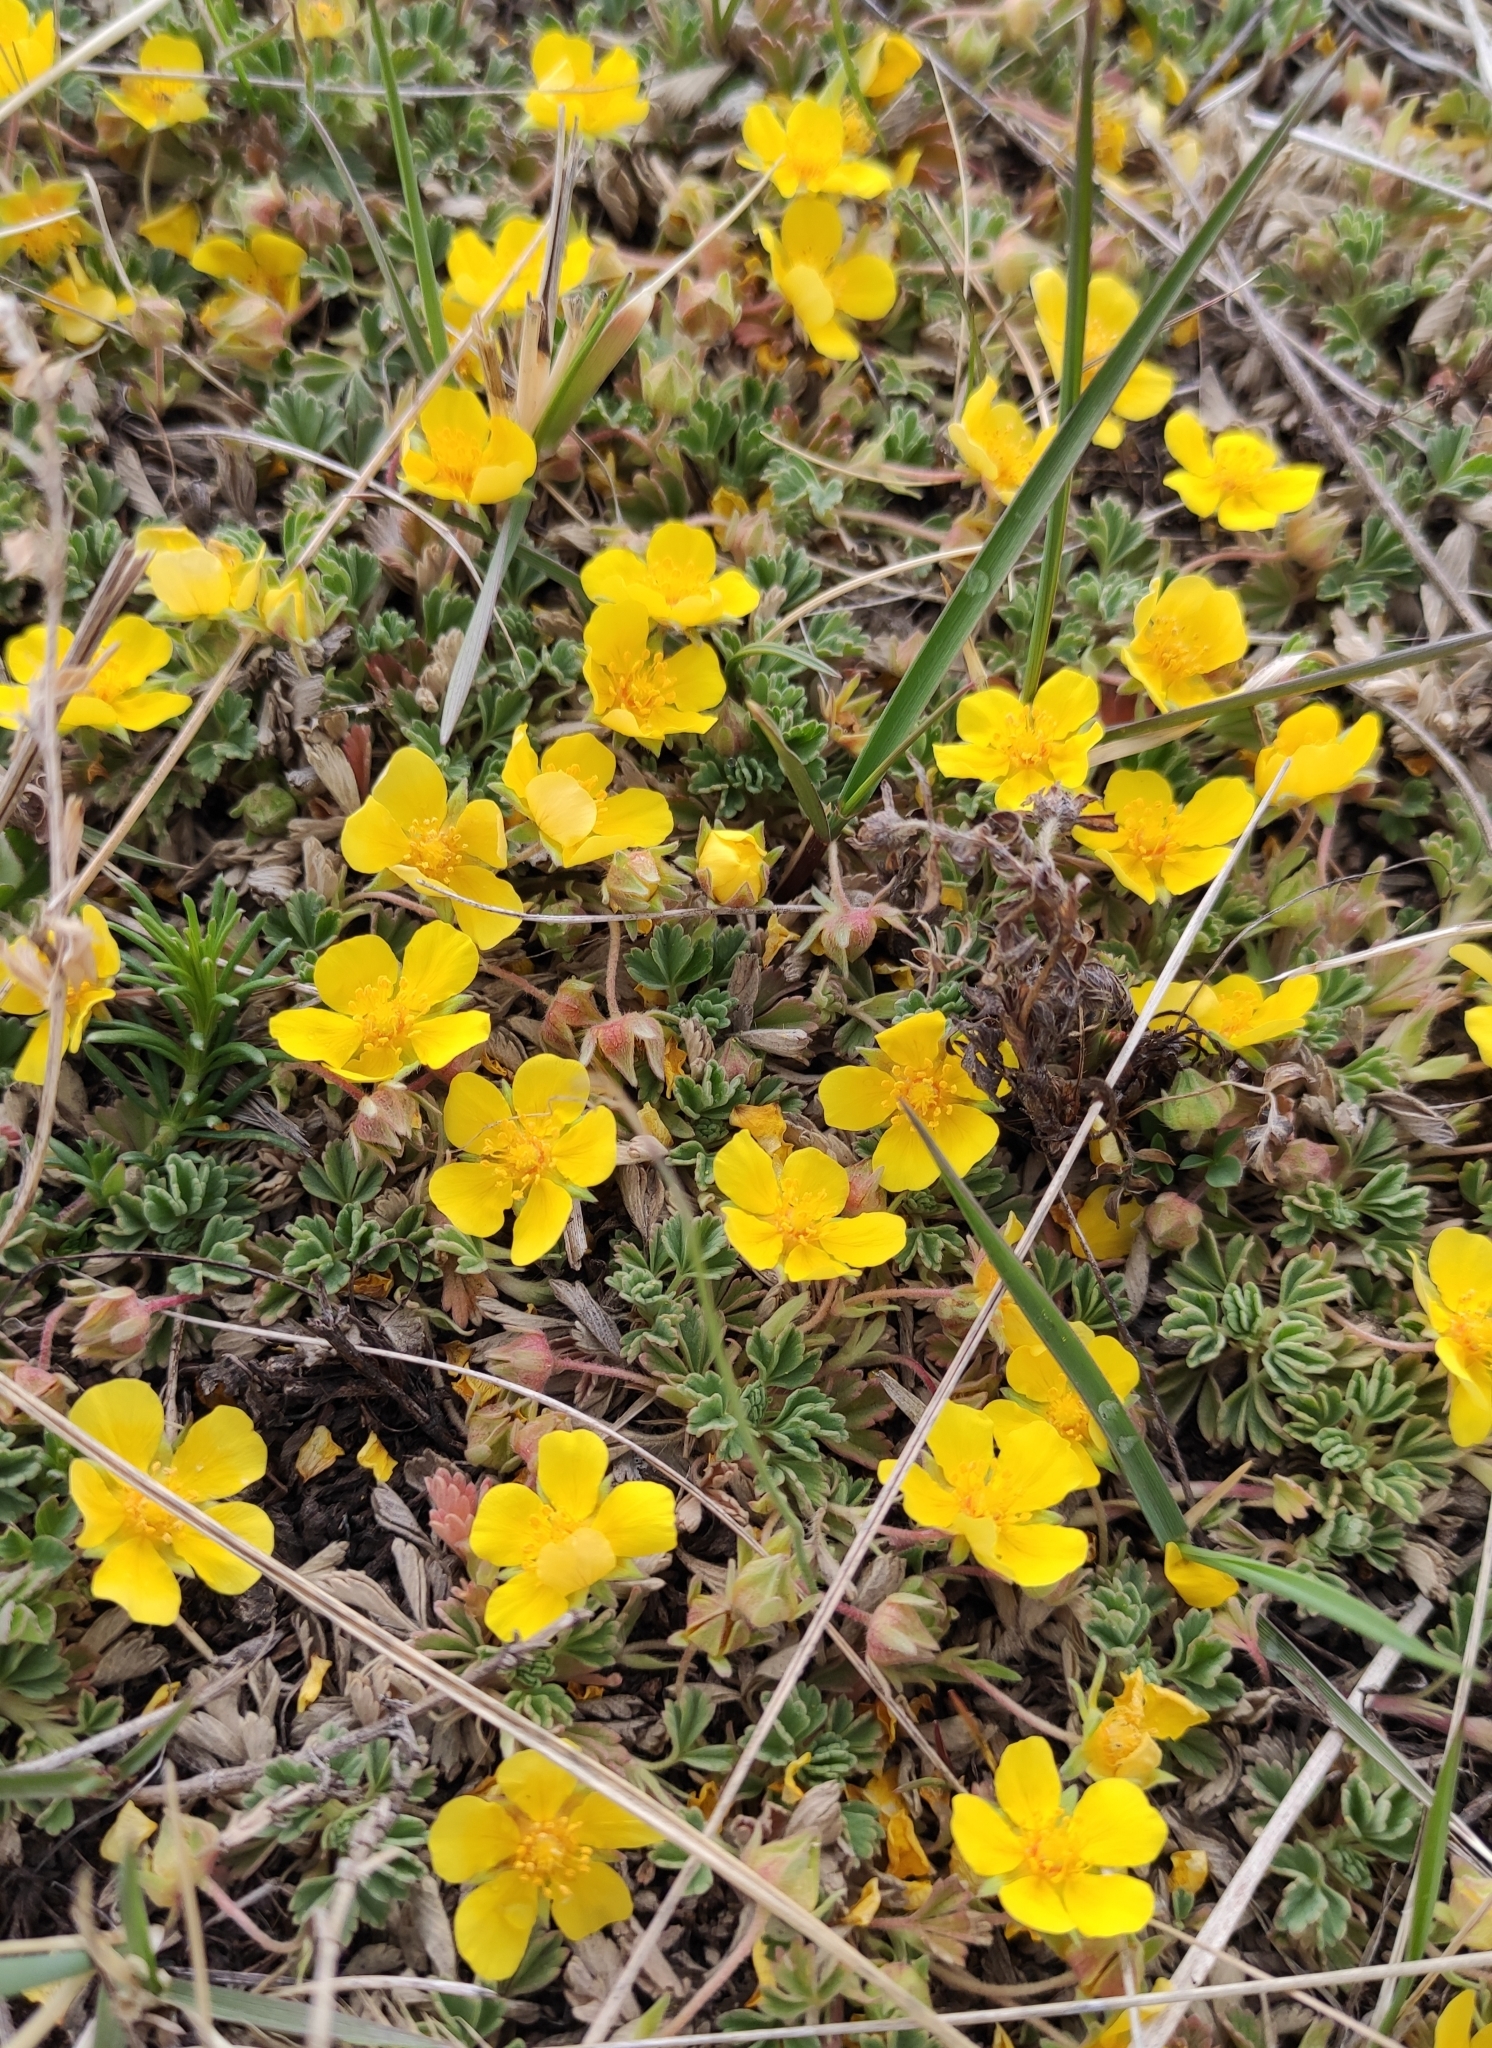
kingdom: Plantae
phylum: Tracheophyta
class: Magnoliopsida
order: Rosales
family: Rosaceae
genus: Potentilla
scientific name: Potentilla acaulis
